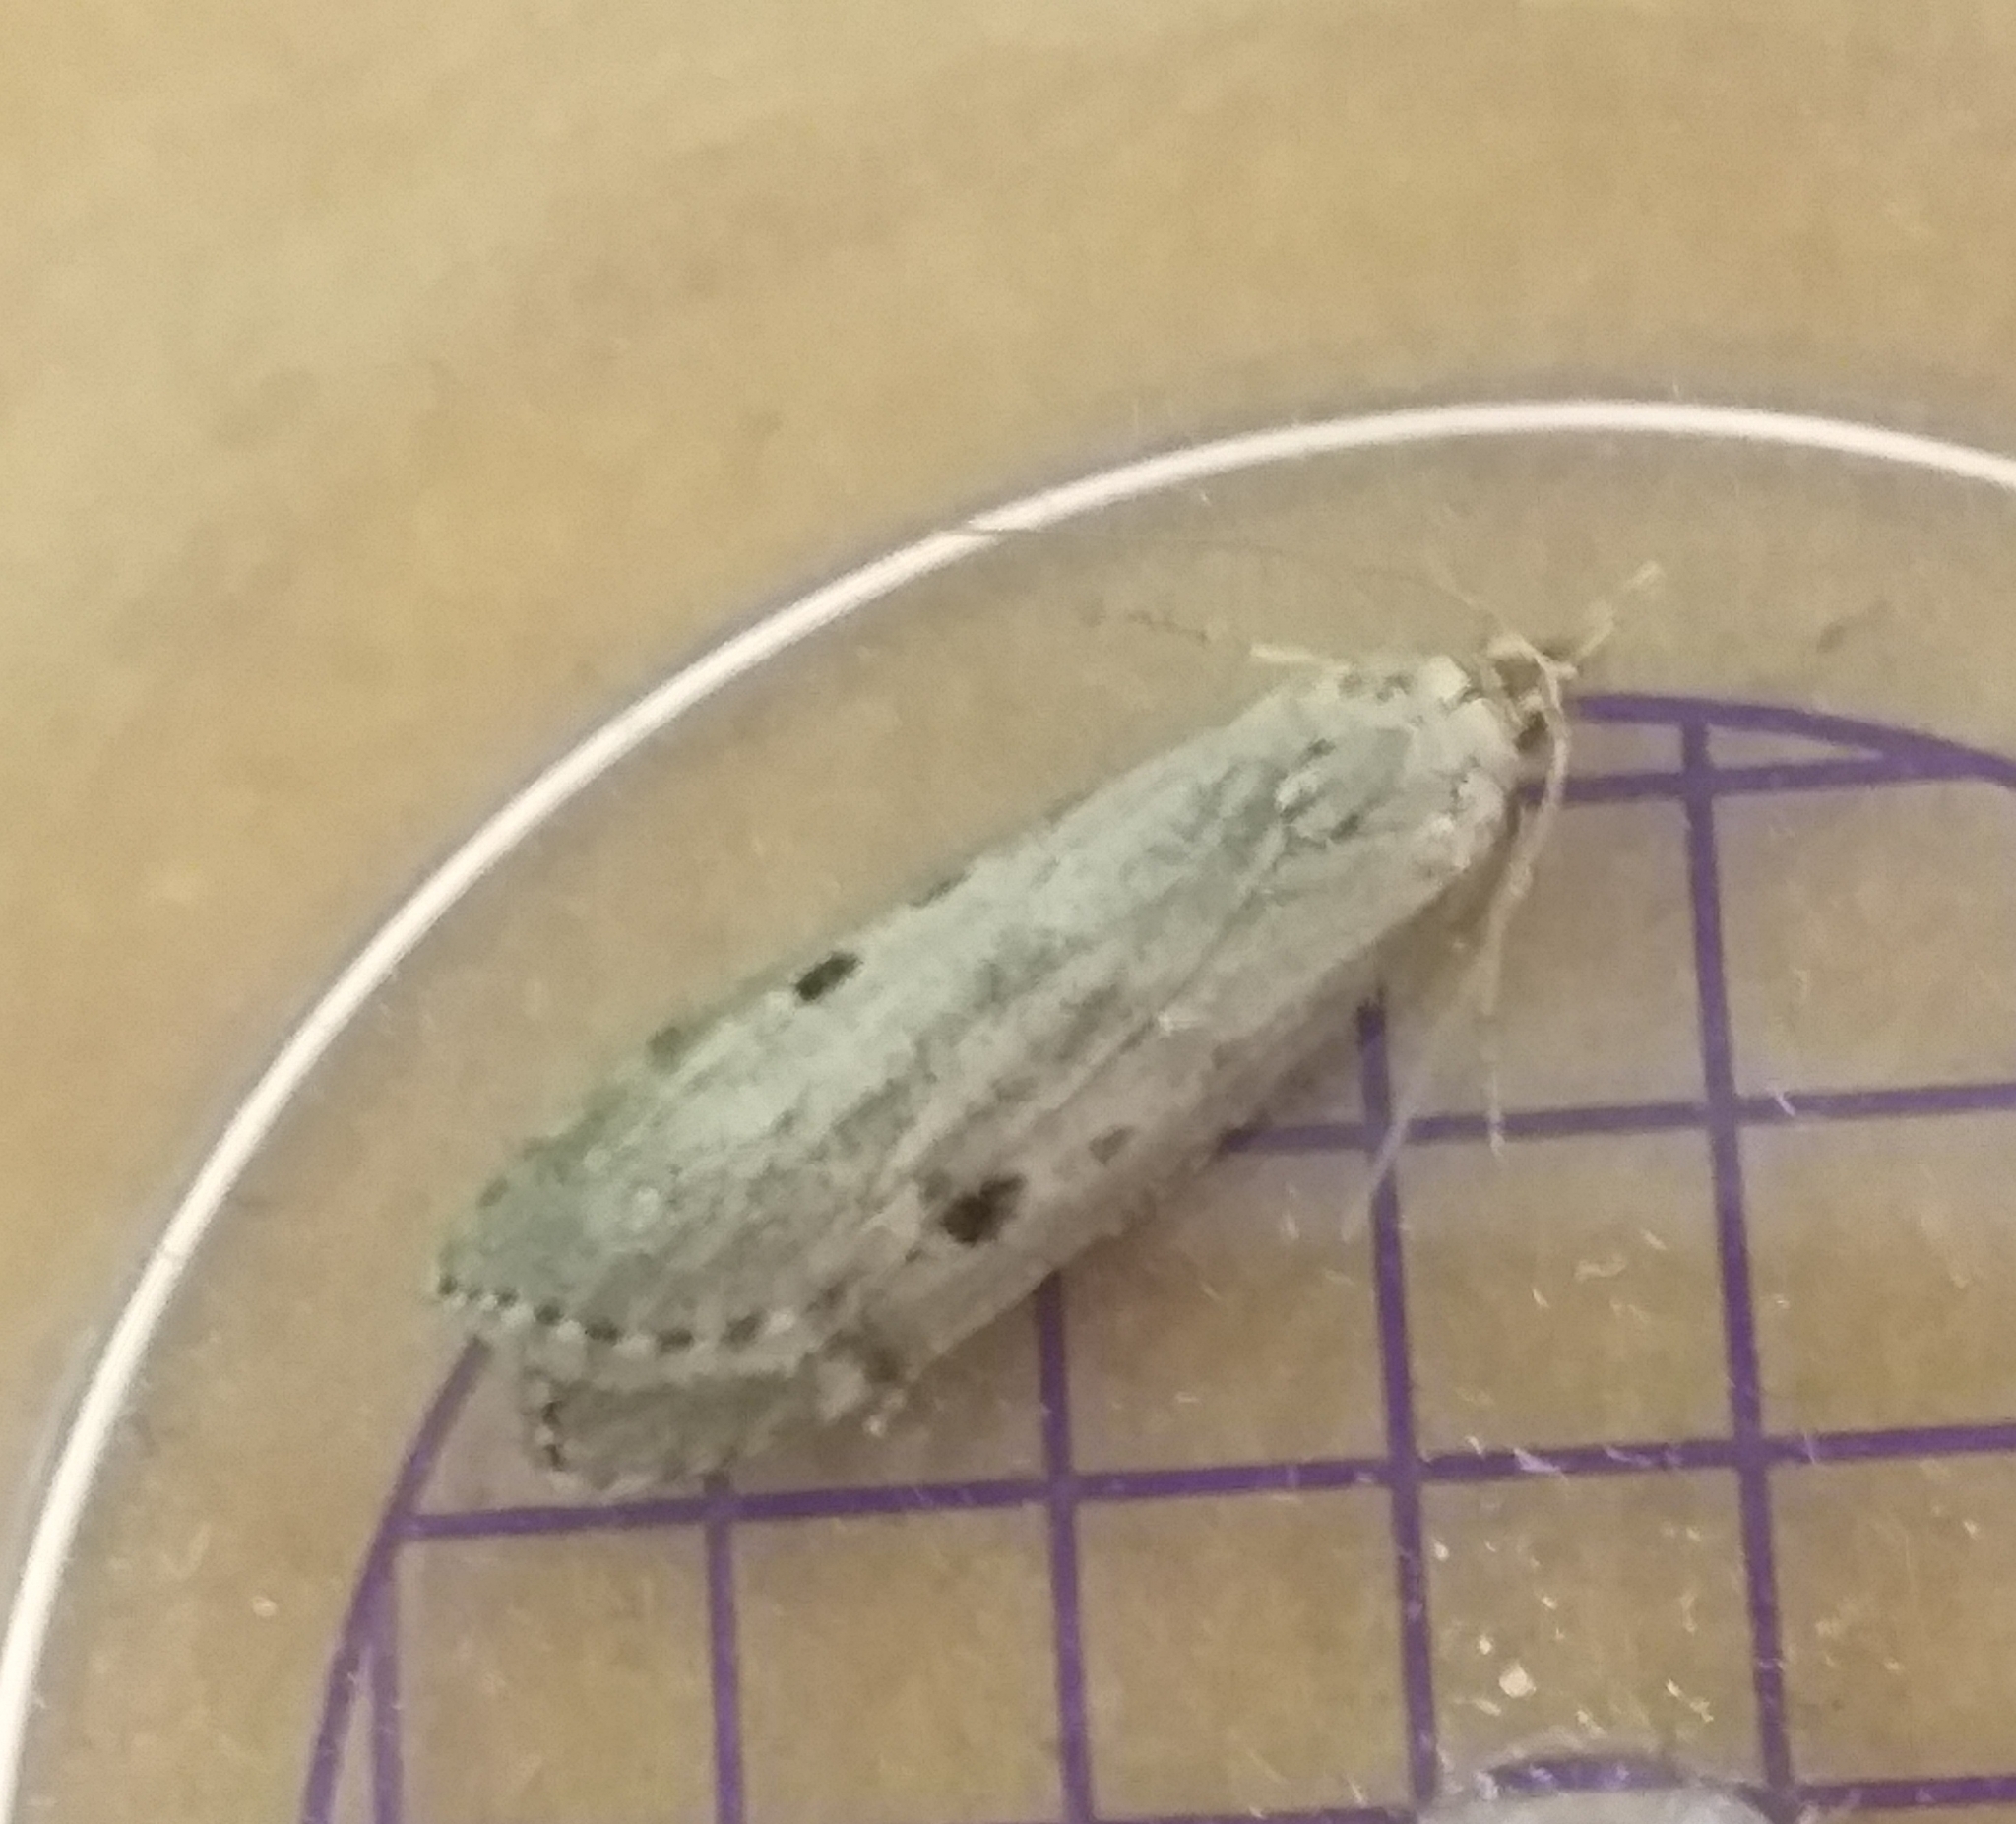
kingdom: Animalia
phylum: Arthropoda
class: Insecta
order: Lepidoptera
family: Pyralidae
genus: Aphomia
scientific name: Aphomia sociella
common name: Bee moth
